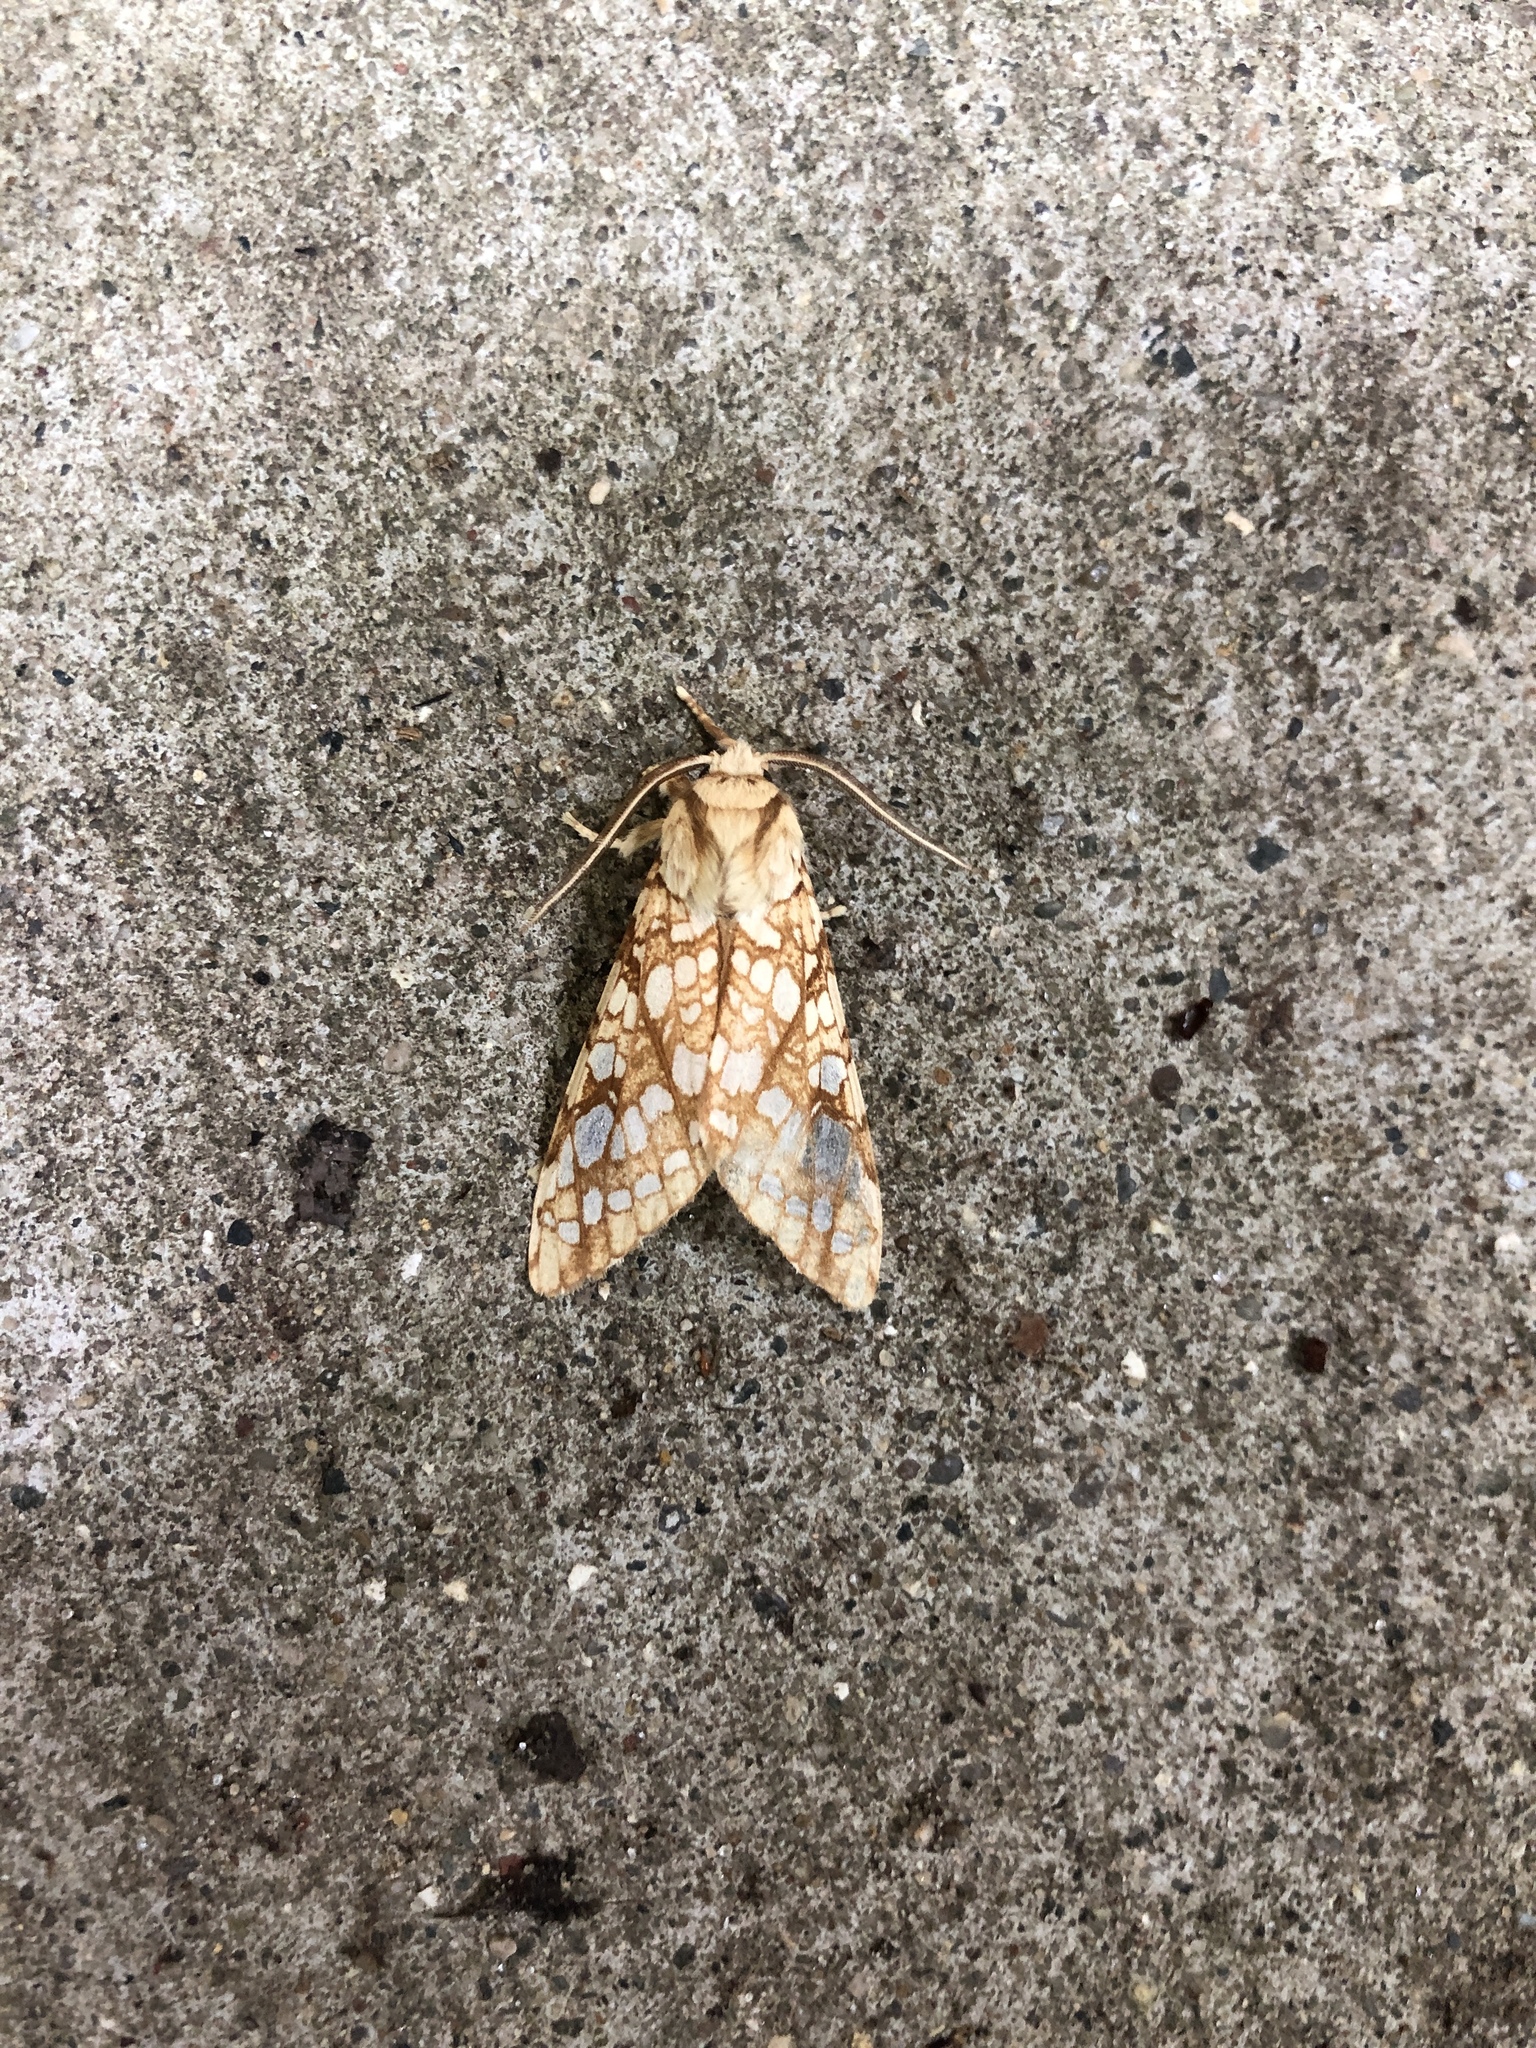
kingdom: Animalia
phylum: Arthropoda
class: Insecta
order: Lepidoptera
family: Erebidae
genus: Lophocampa
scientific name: Lophocampa caryae
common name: Hickory tussock moth
